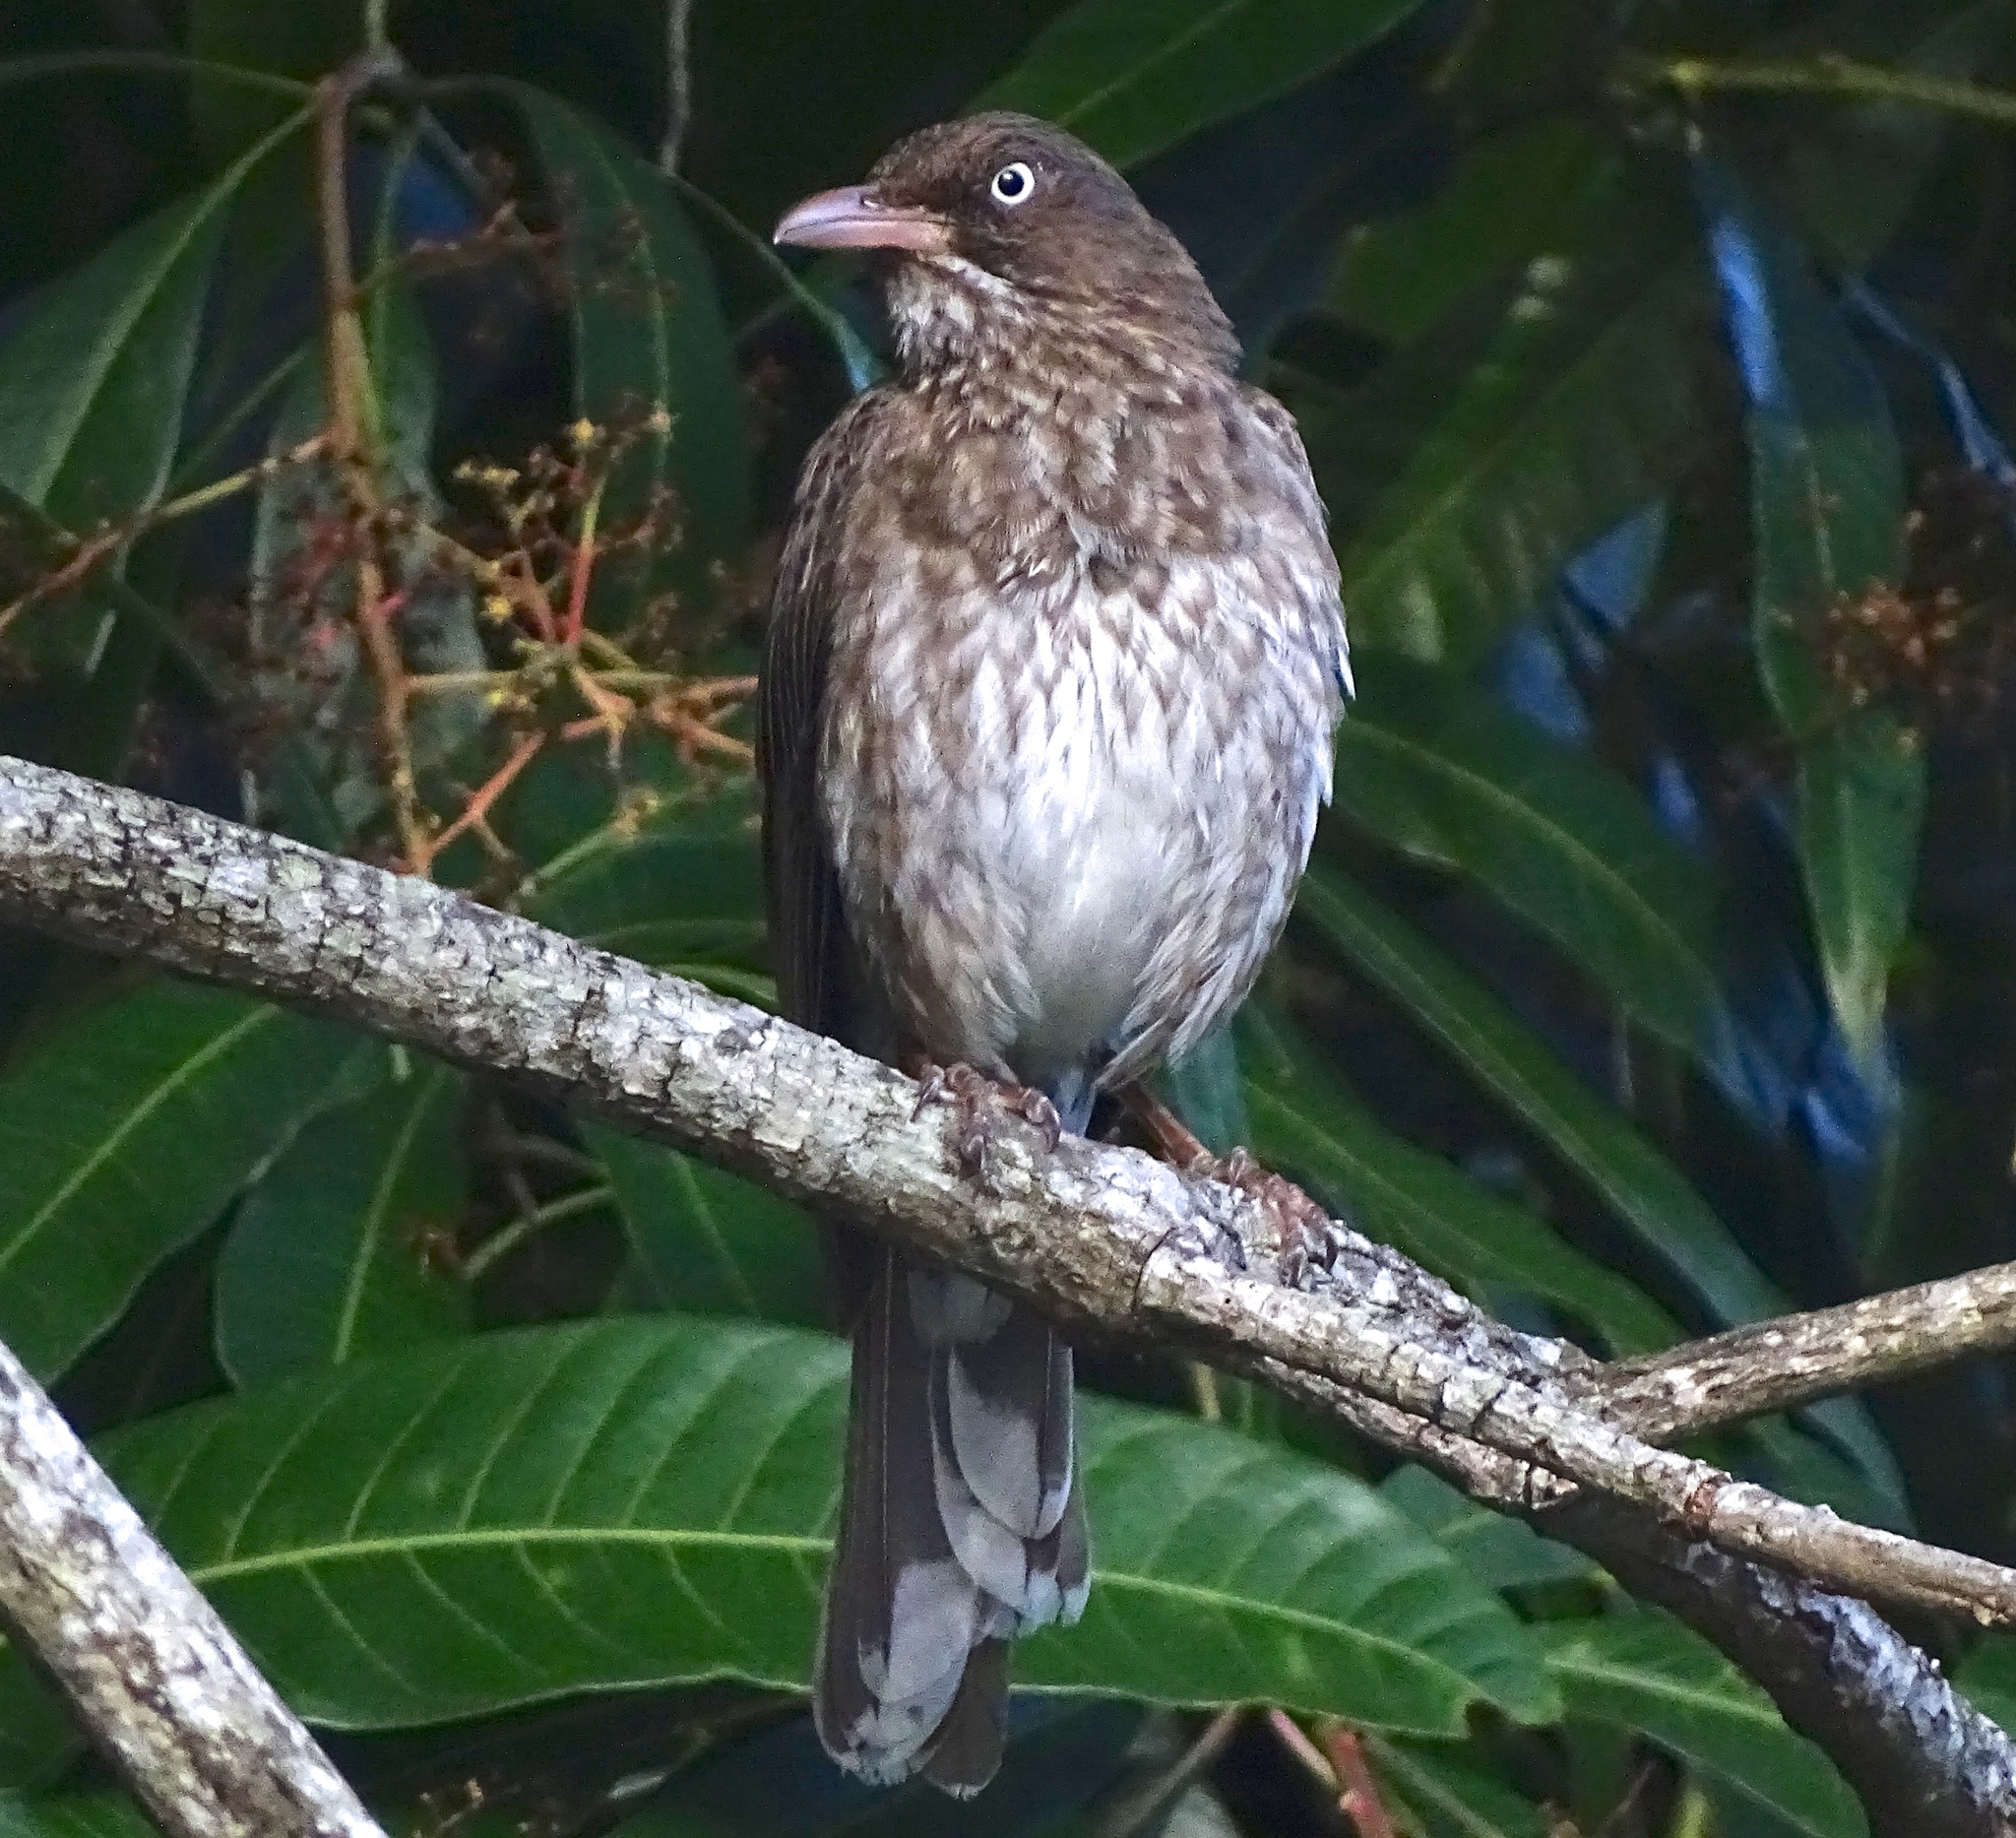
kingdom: Animalia
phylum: Chordata
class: Aves
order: Passeriformes
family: Mimidae
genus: Margarops
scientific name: Margarops fuscatus
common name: Pearly-eyed thrasher
